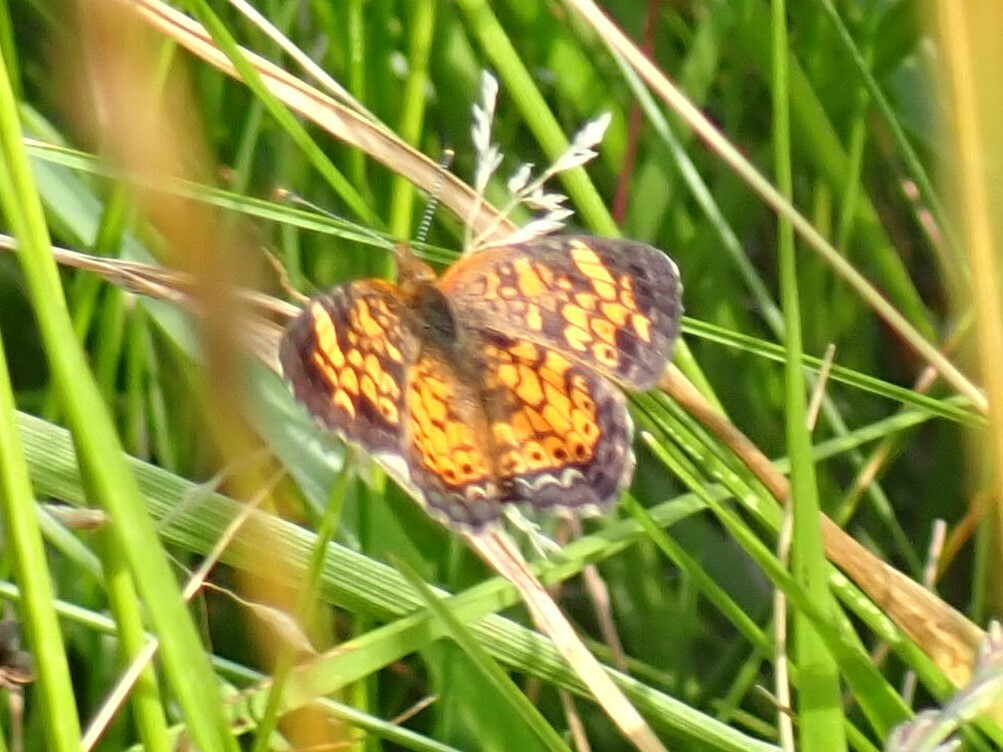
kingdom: Animalia
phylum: Arthropoda
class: Insecta
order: Lepidoptera
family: Nymphalidae
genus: Phyciodes
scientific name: Phyciodes tharos
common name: Pearl crescent
